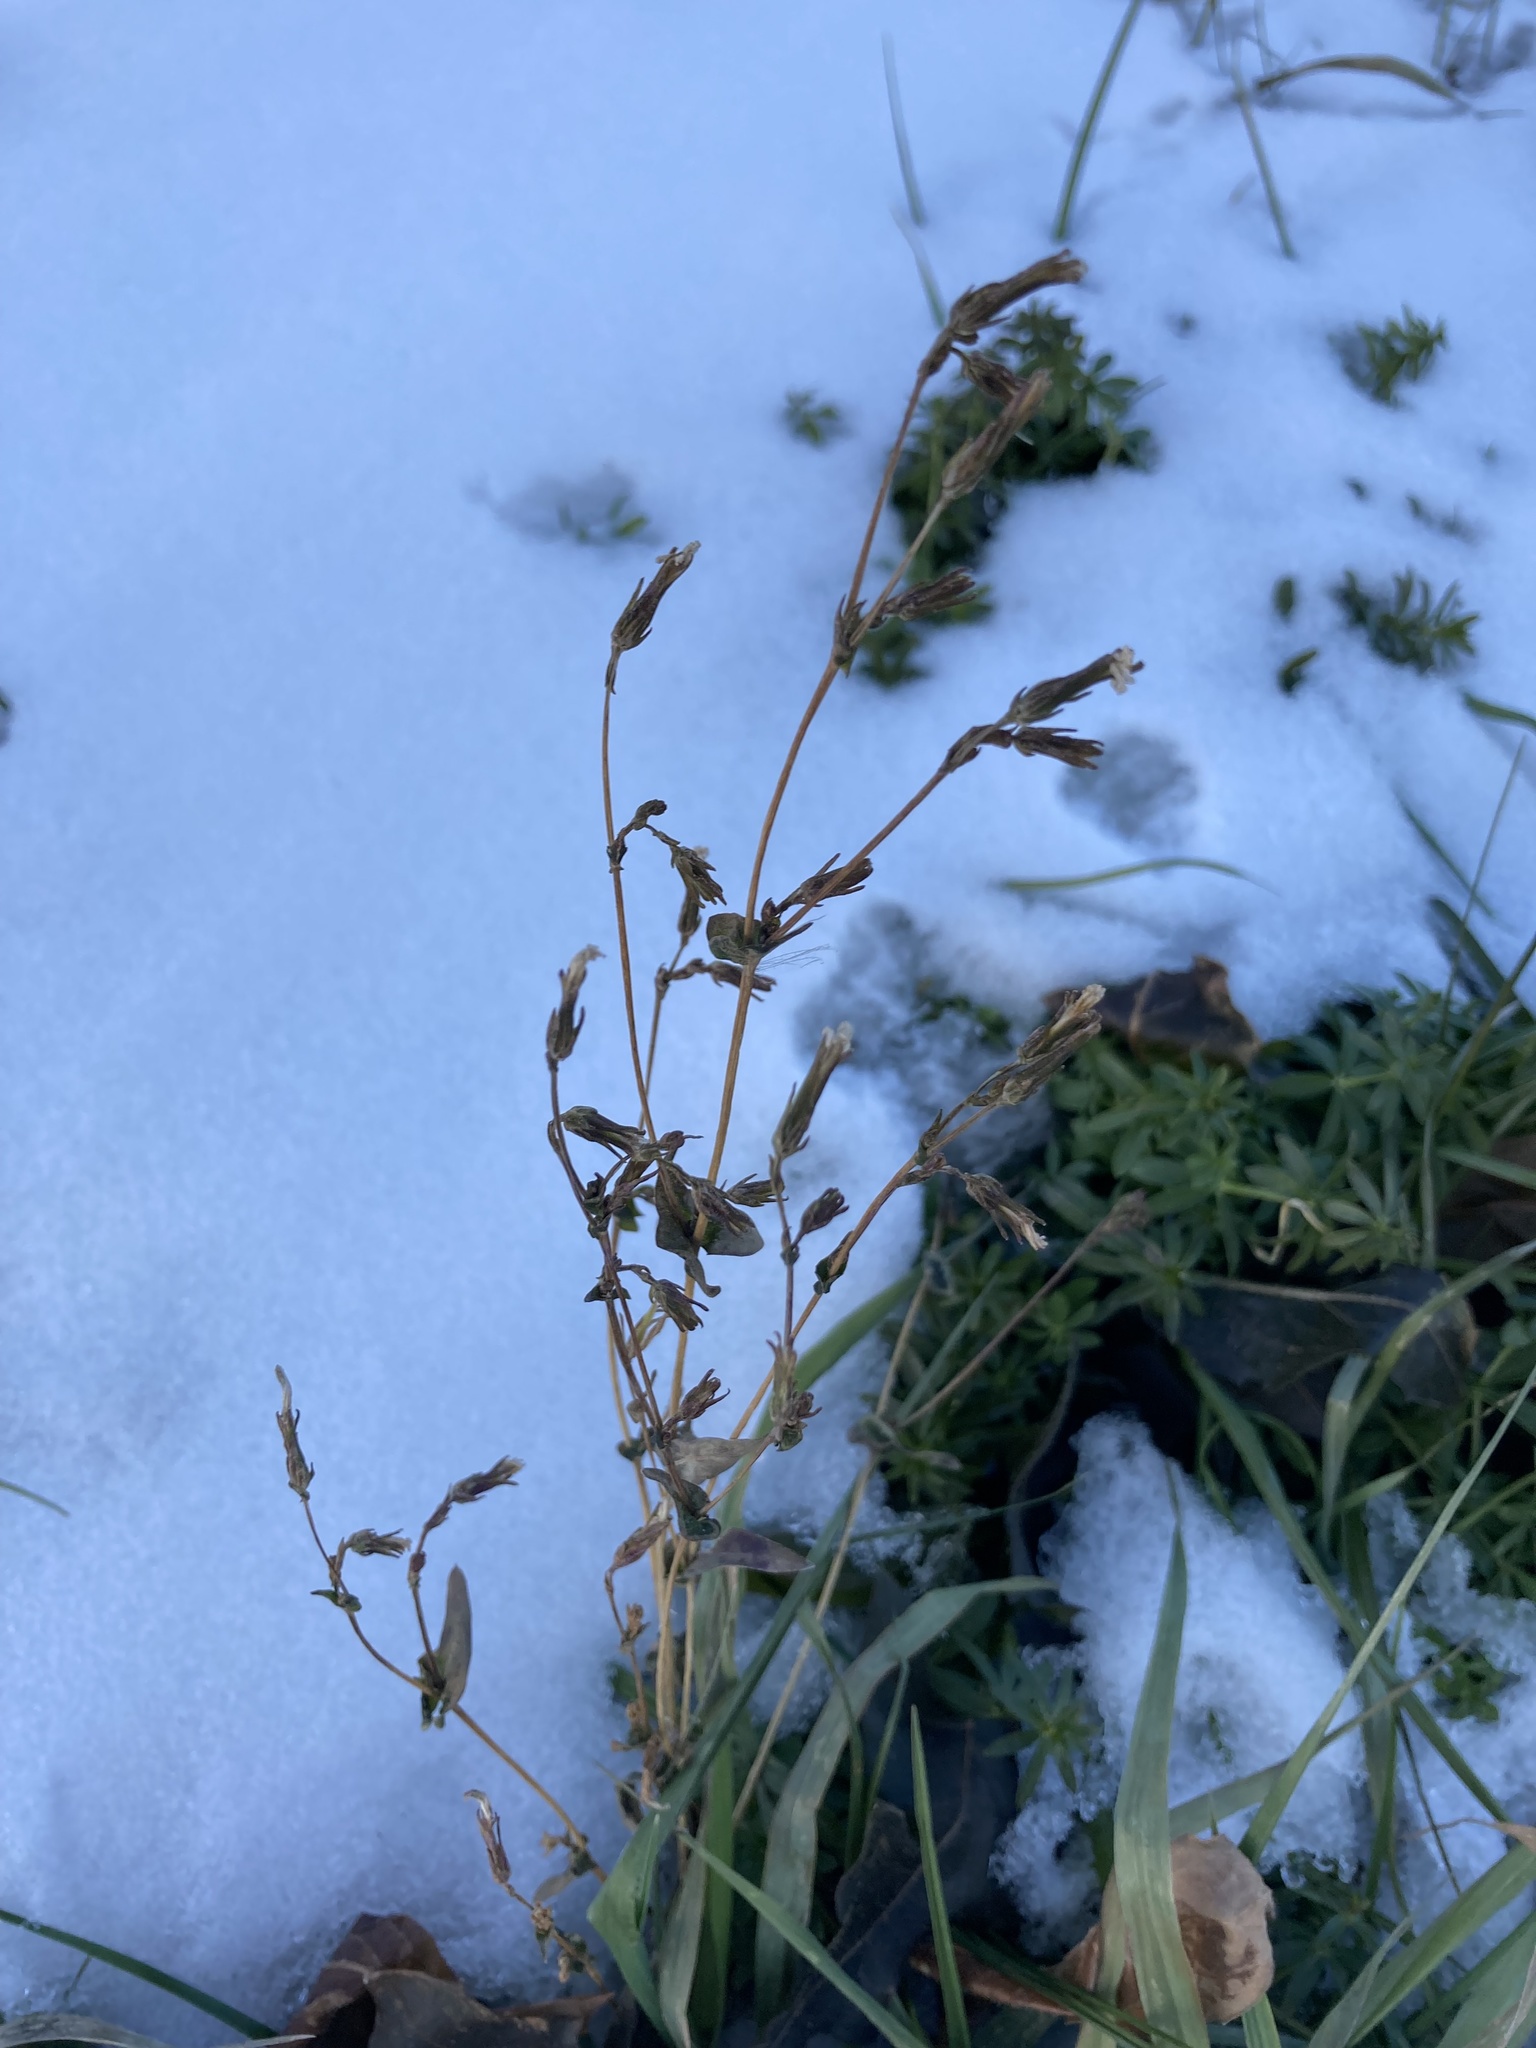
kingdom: Plantae
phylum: Tracheophyta
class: Magnoliopsida
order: Asterales
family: Asteraceae
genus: Lactuca
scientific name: Lactuca serriola
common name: Prickly lettuce
